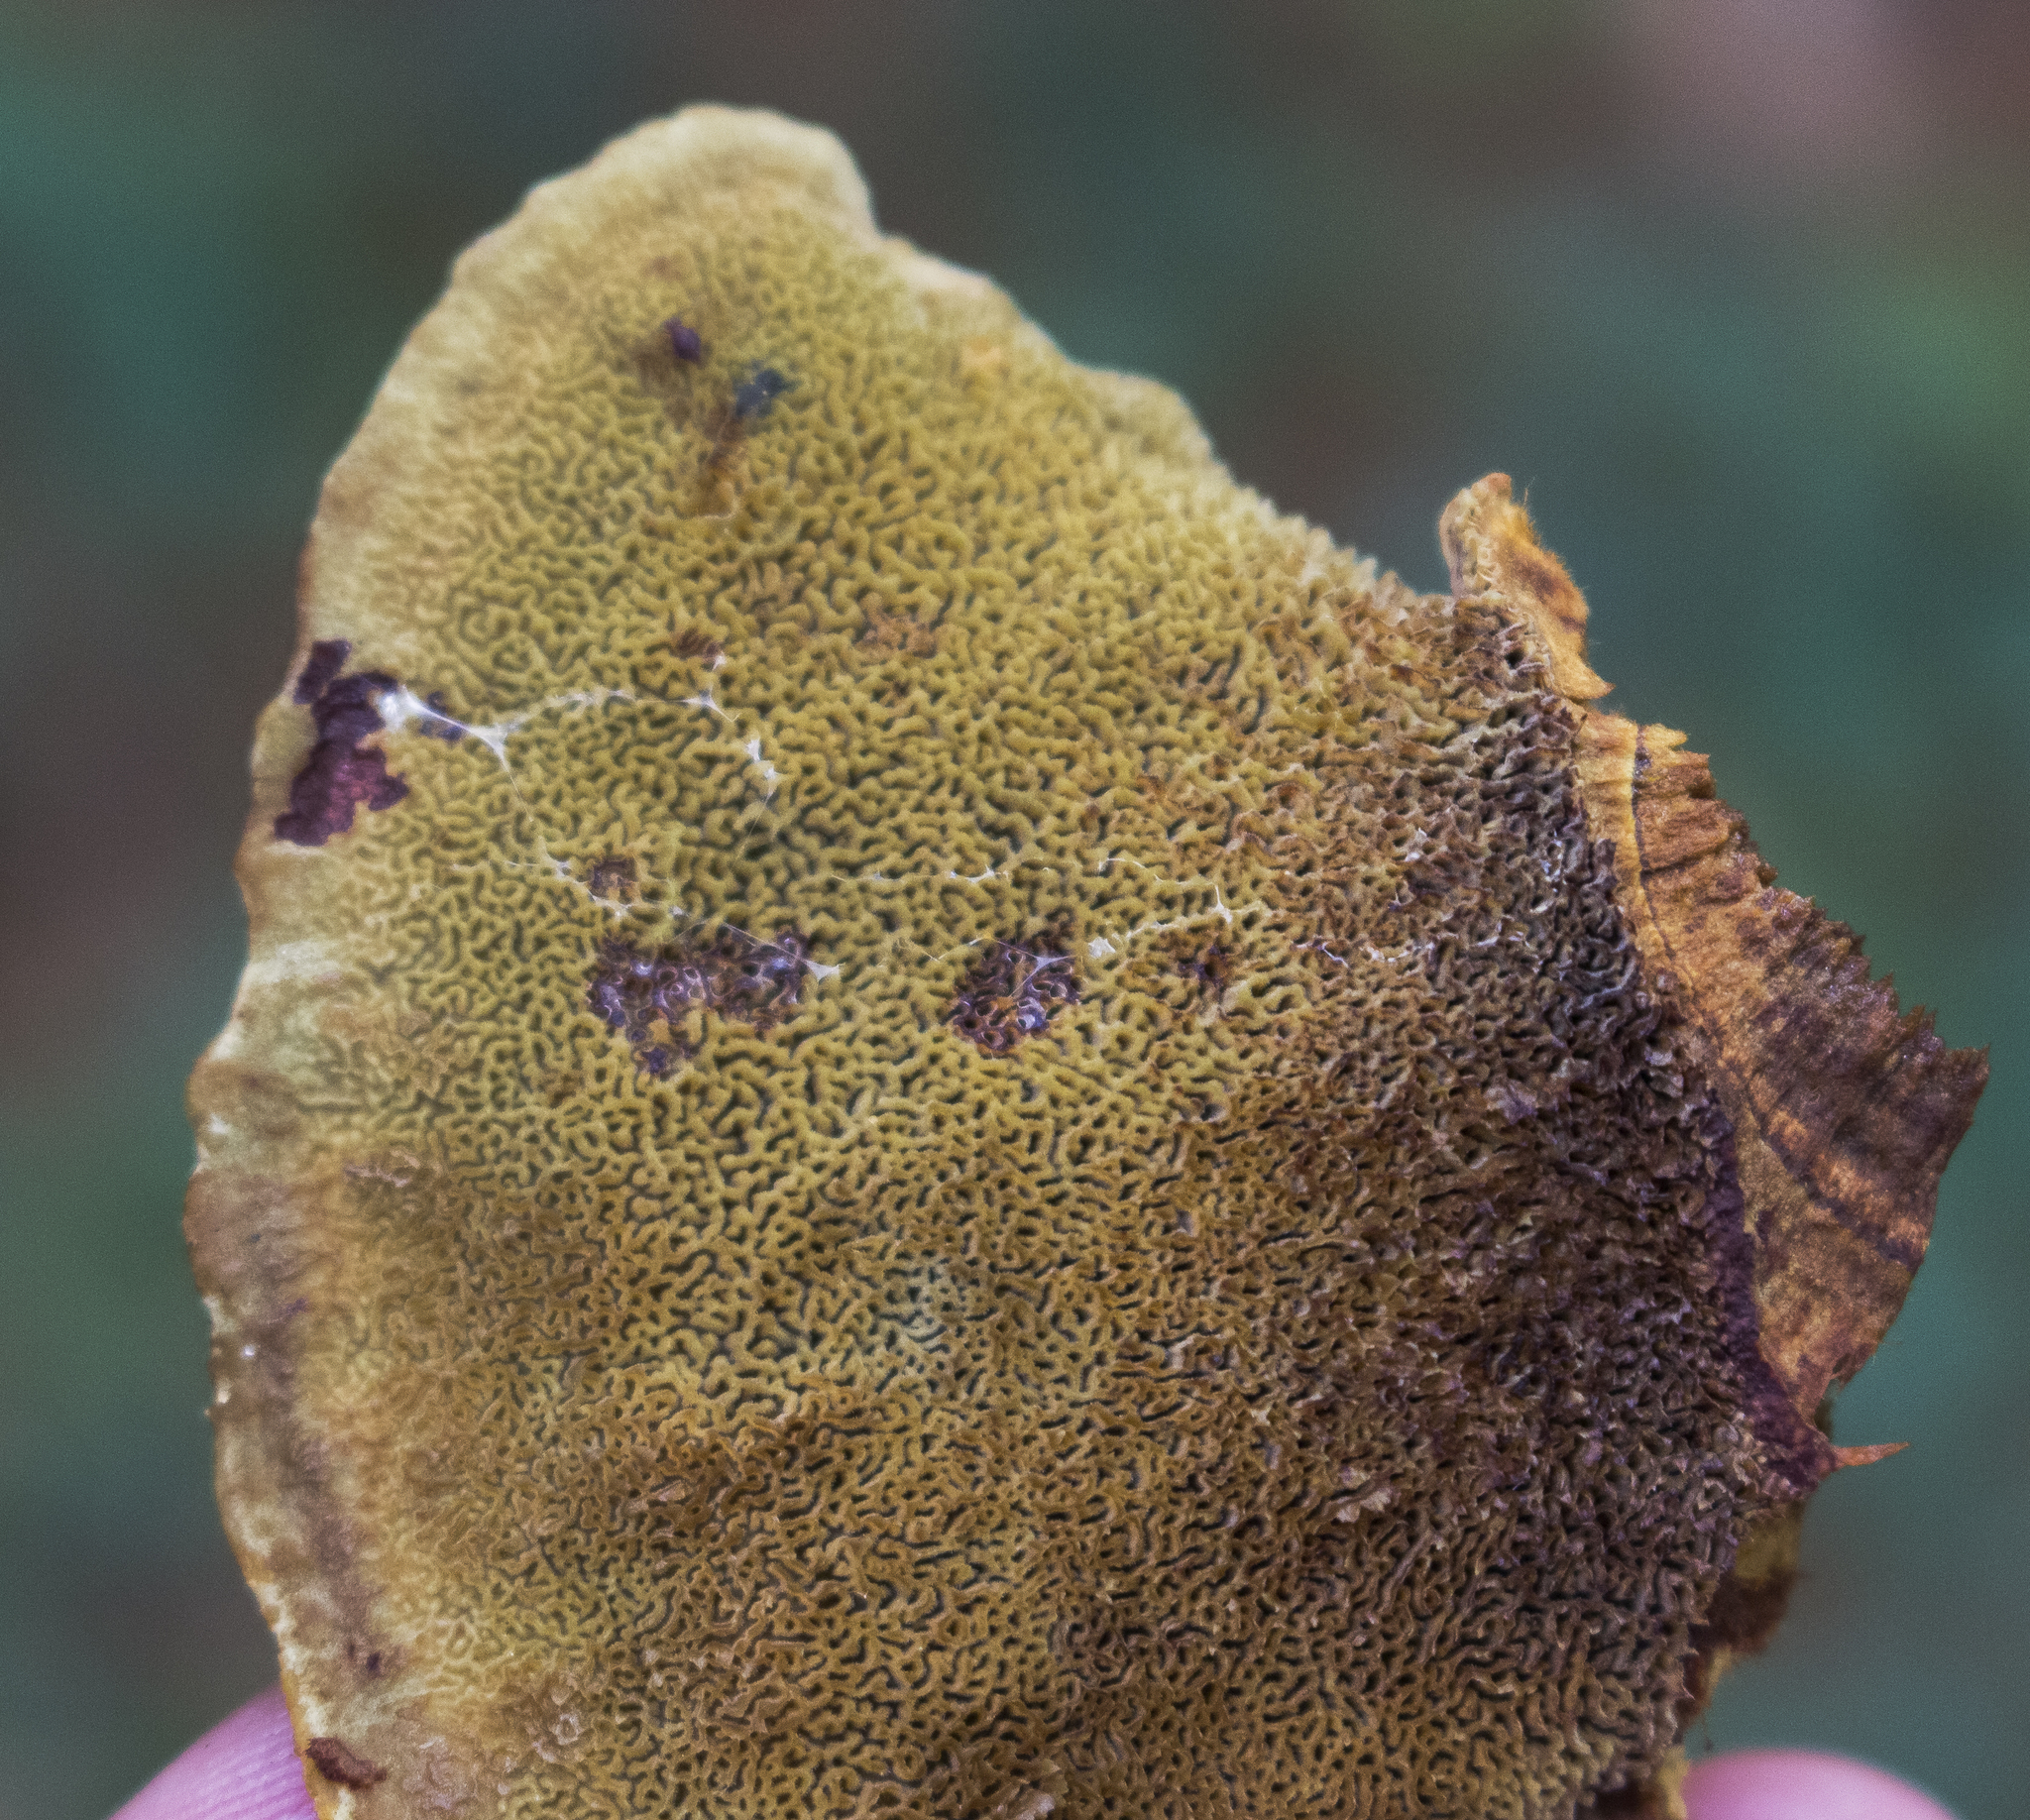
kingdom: Fungi
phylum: Basidiomycota
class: Agaricomycetes
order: Polyporales
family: Laetiporaceae
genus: Phaeolus
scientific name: Phaeolus schweinitzii
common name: Dyer's mazegill
